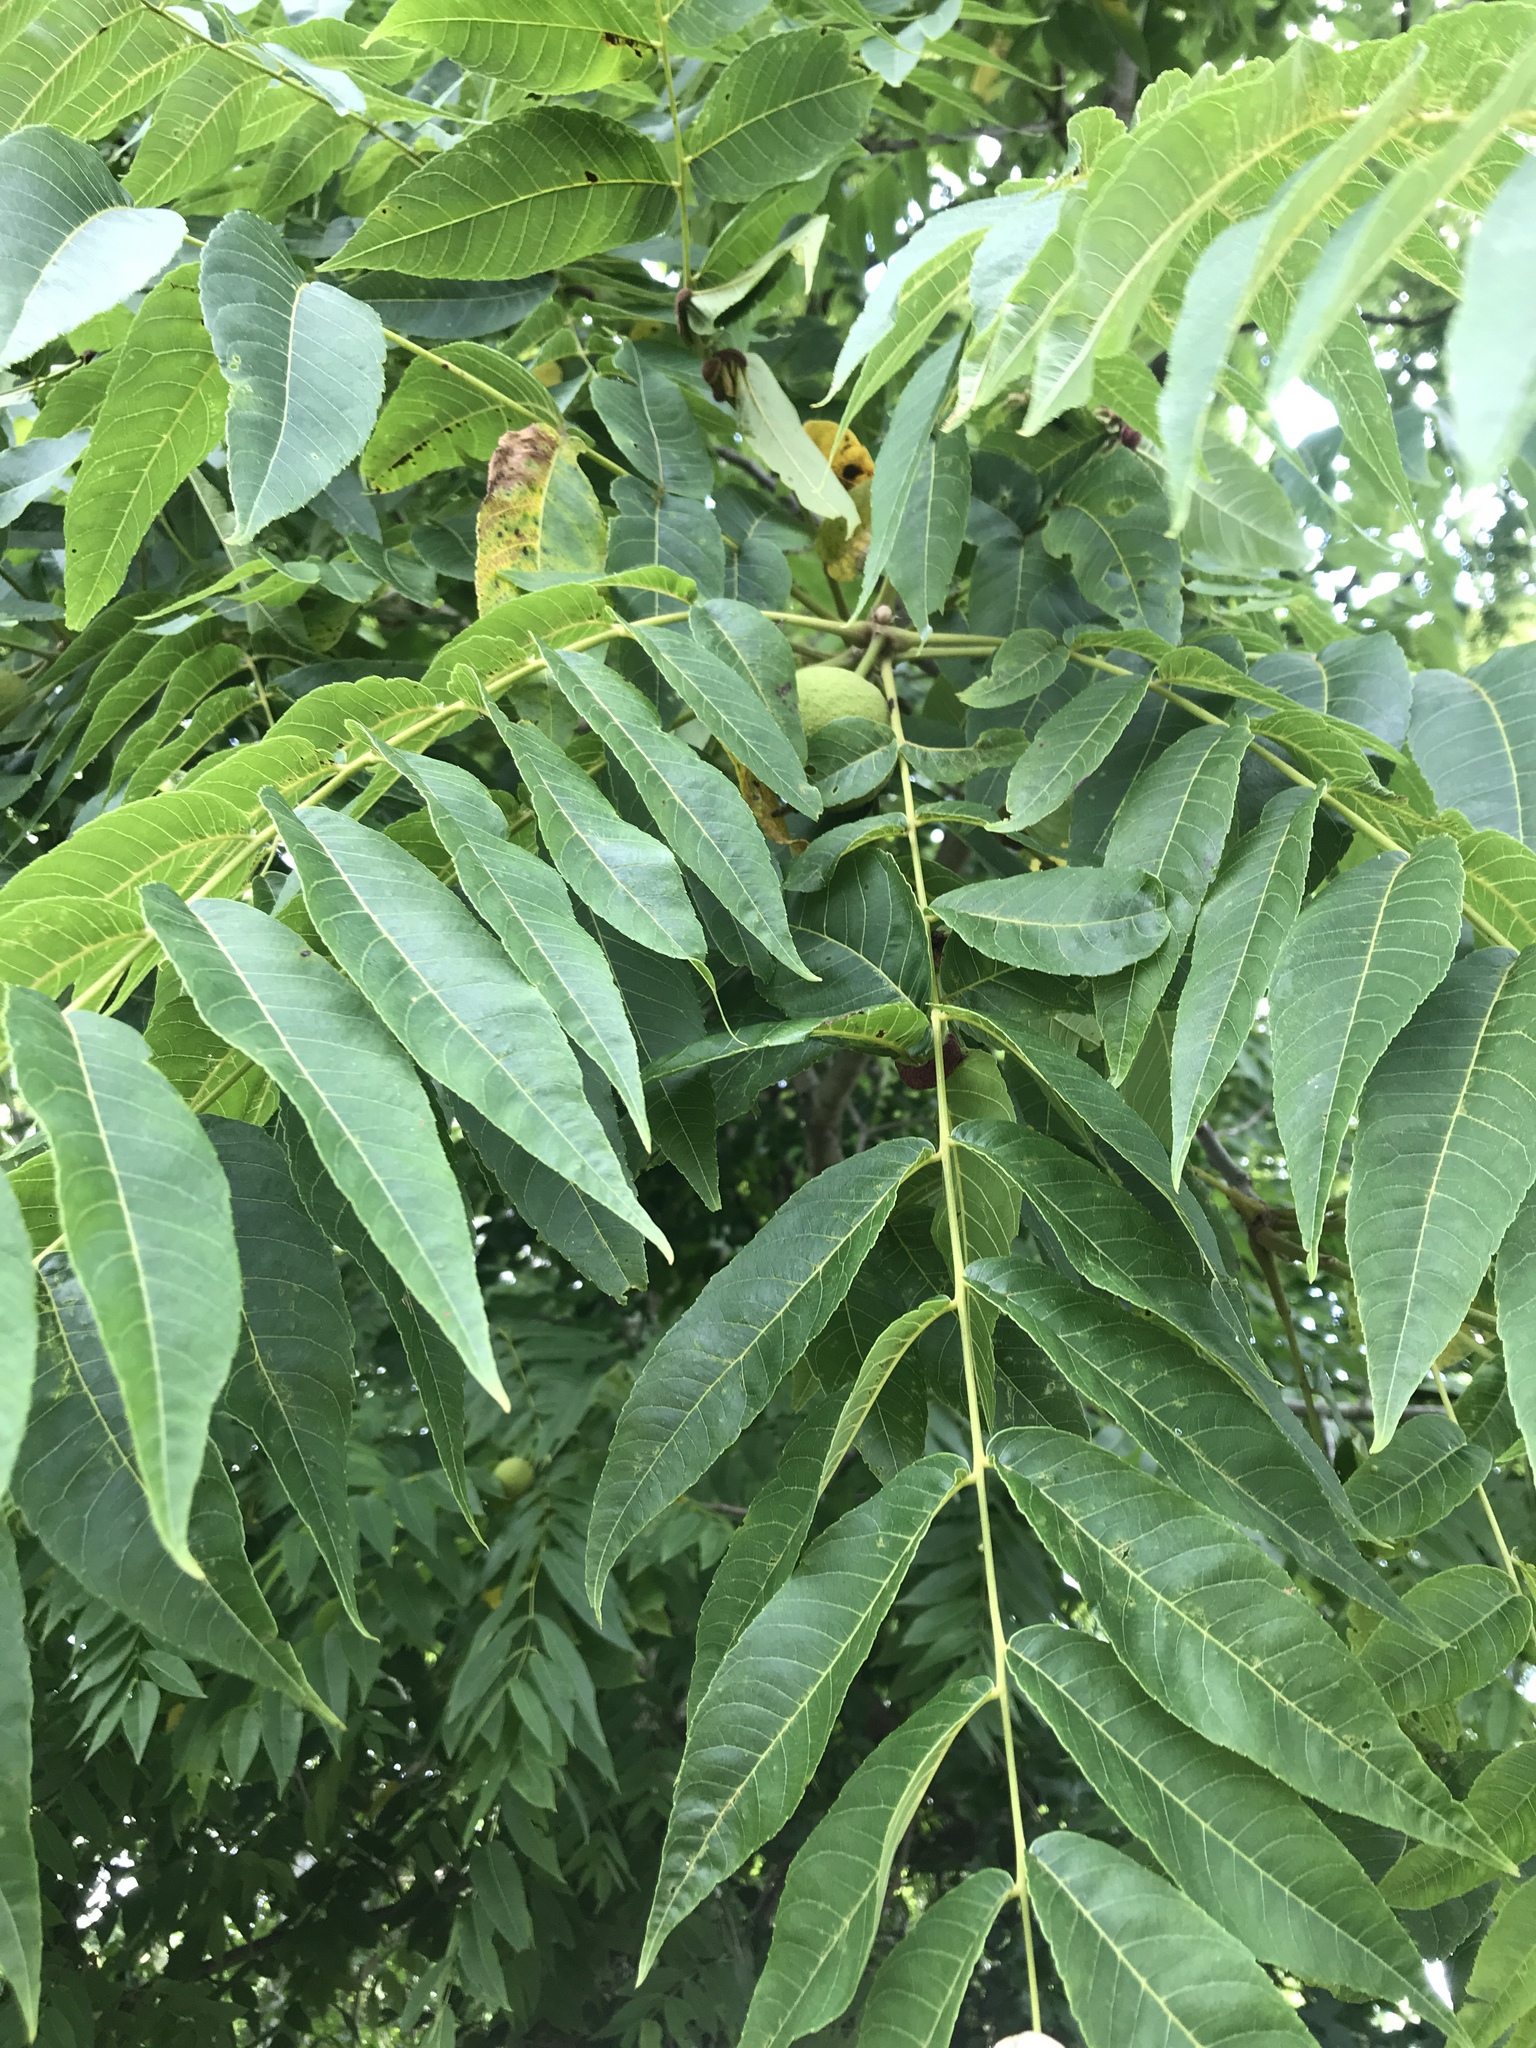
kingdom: Plantae
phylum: Tracheophyta
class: Magnoliopsida
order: Fagales
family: Juglandaceae
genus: Juglans
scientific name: Juglans nigra
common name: Black walnut
